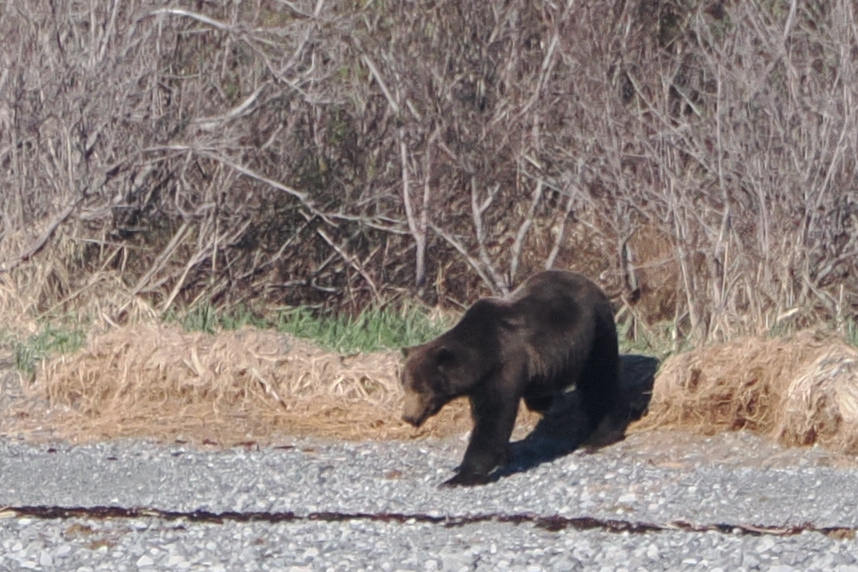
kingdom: Animalia
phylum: Chordata
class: Mammalia
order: Carnivora
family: Ursidae
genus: Ursus
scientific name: Ursus arctos
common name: Brown bear
